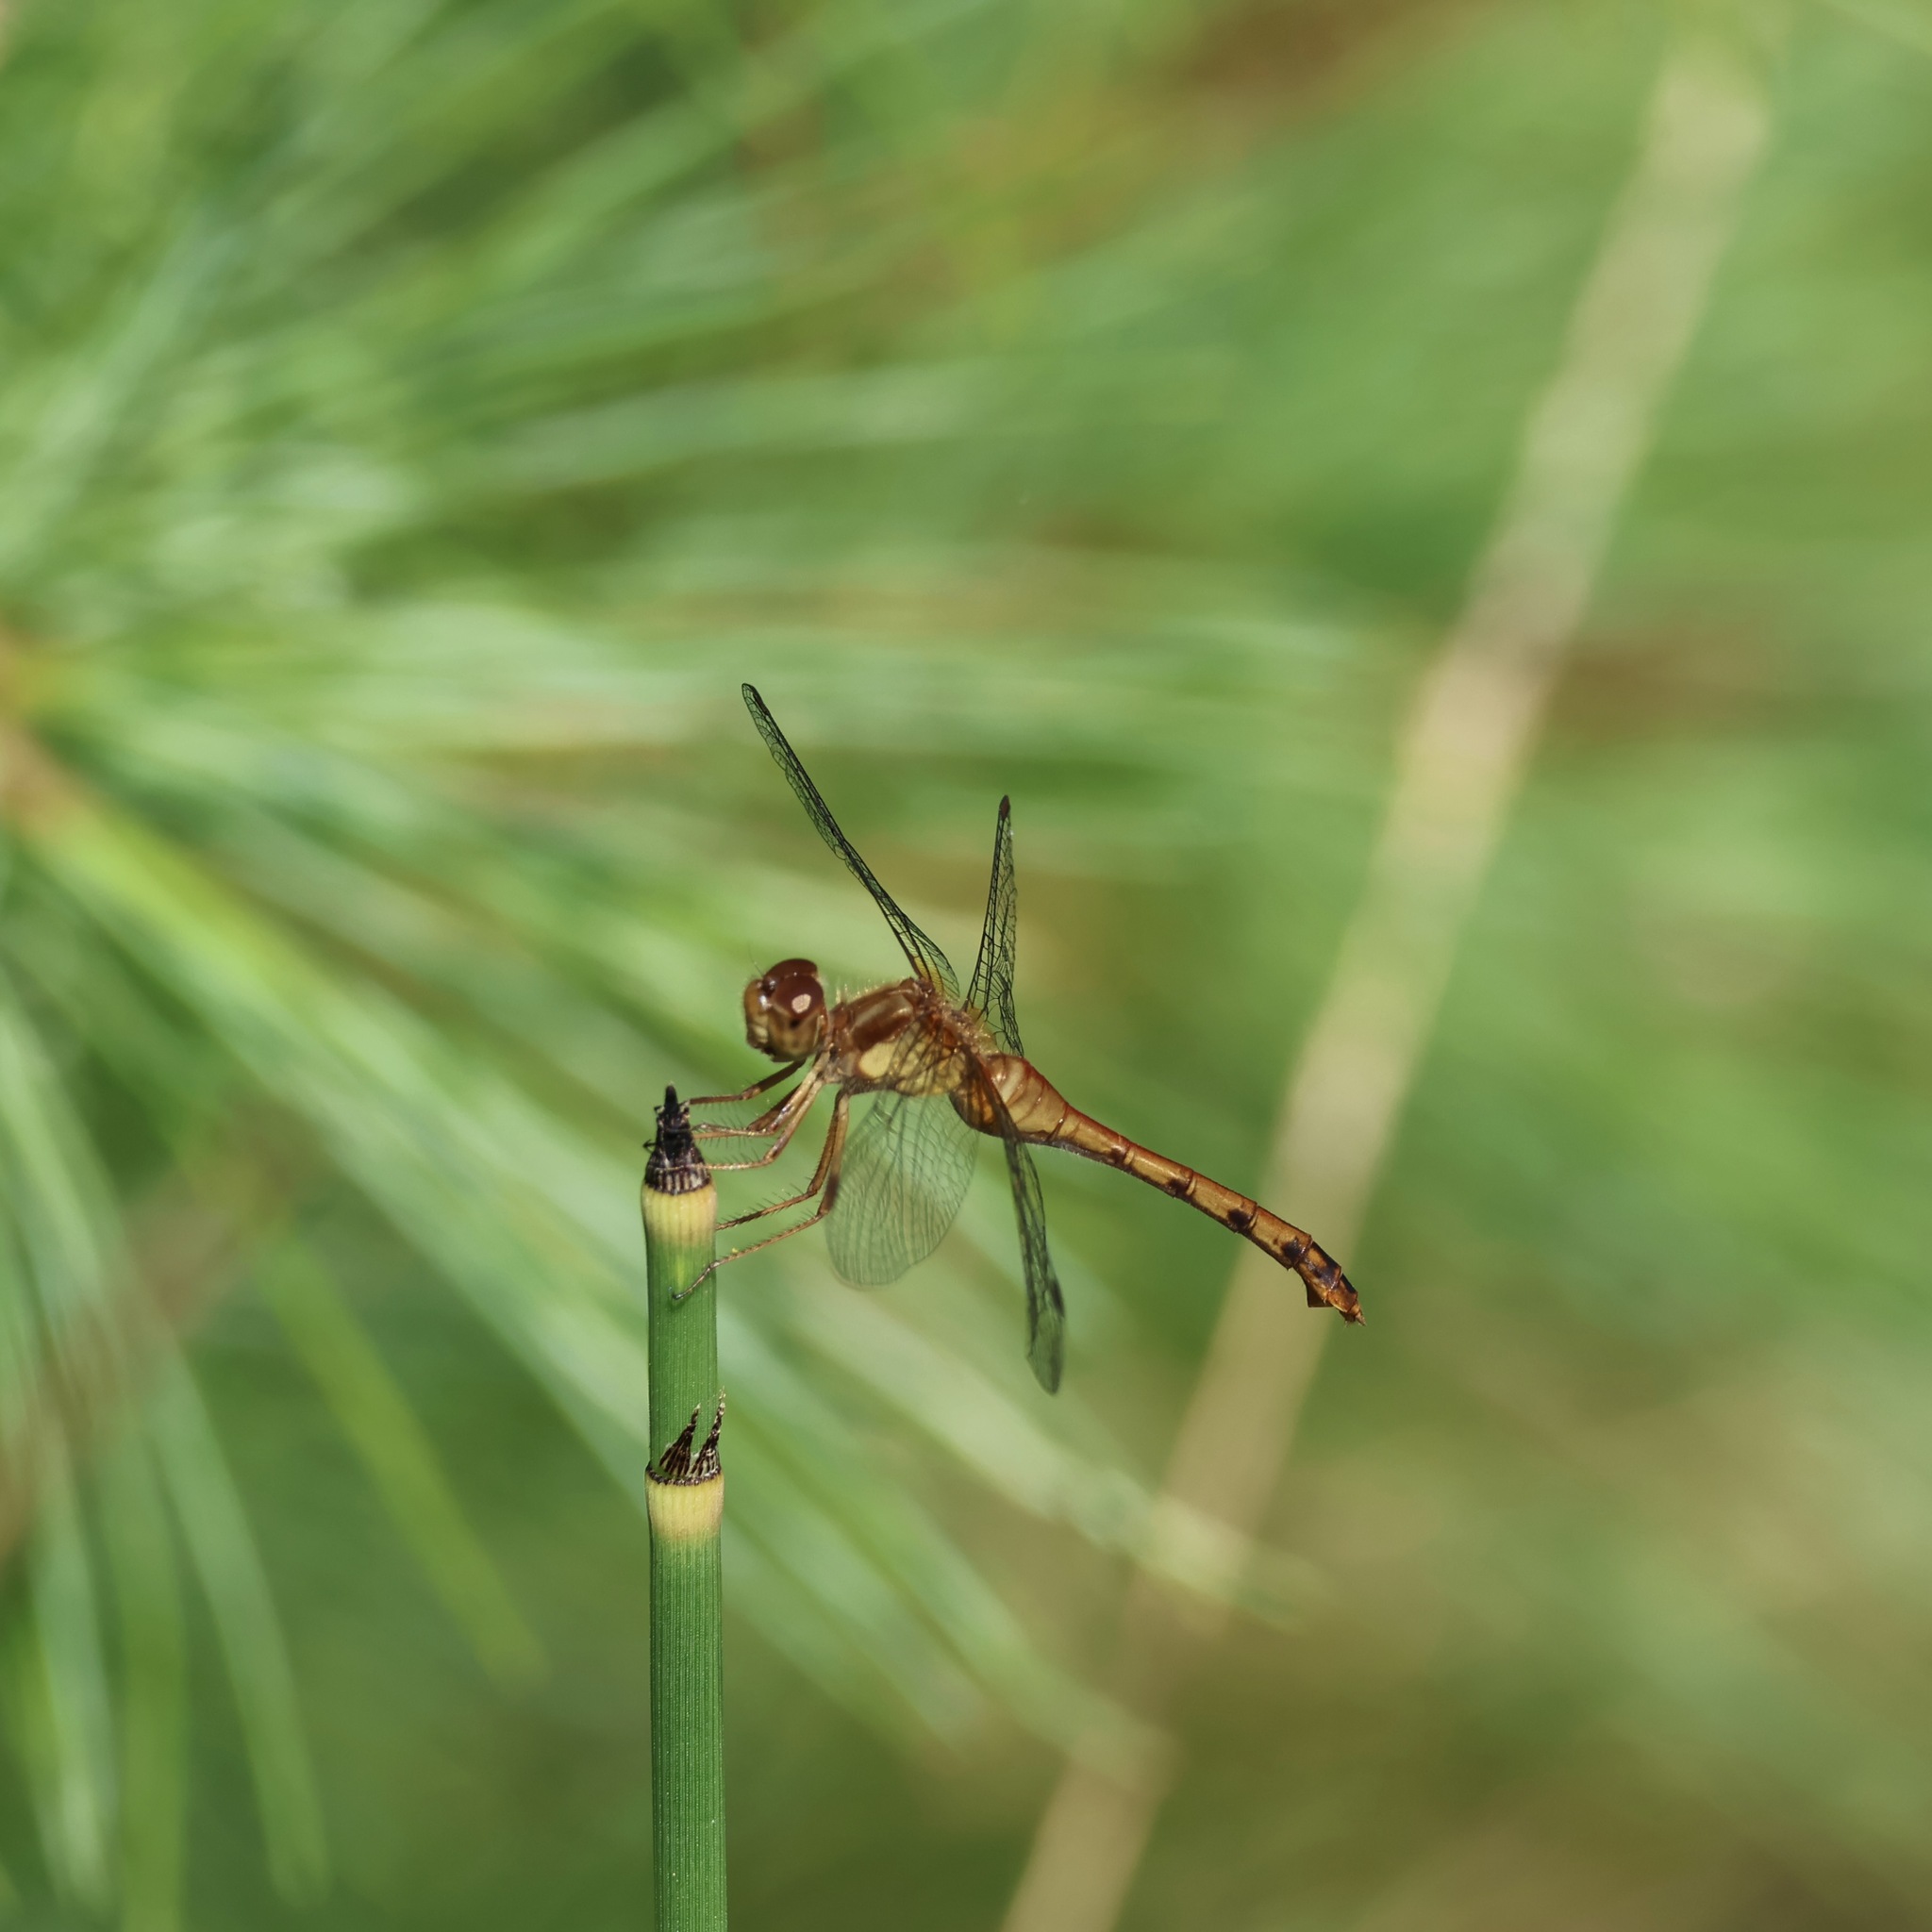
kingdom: Animalia
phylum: Arthropoda
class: Insecta
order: Odonata
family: Libellulidae
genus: Sympetrum
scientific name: Sympetrum vicinum
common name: Autumn meadowhawk
